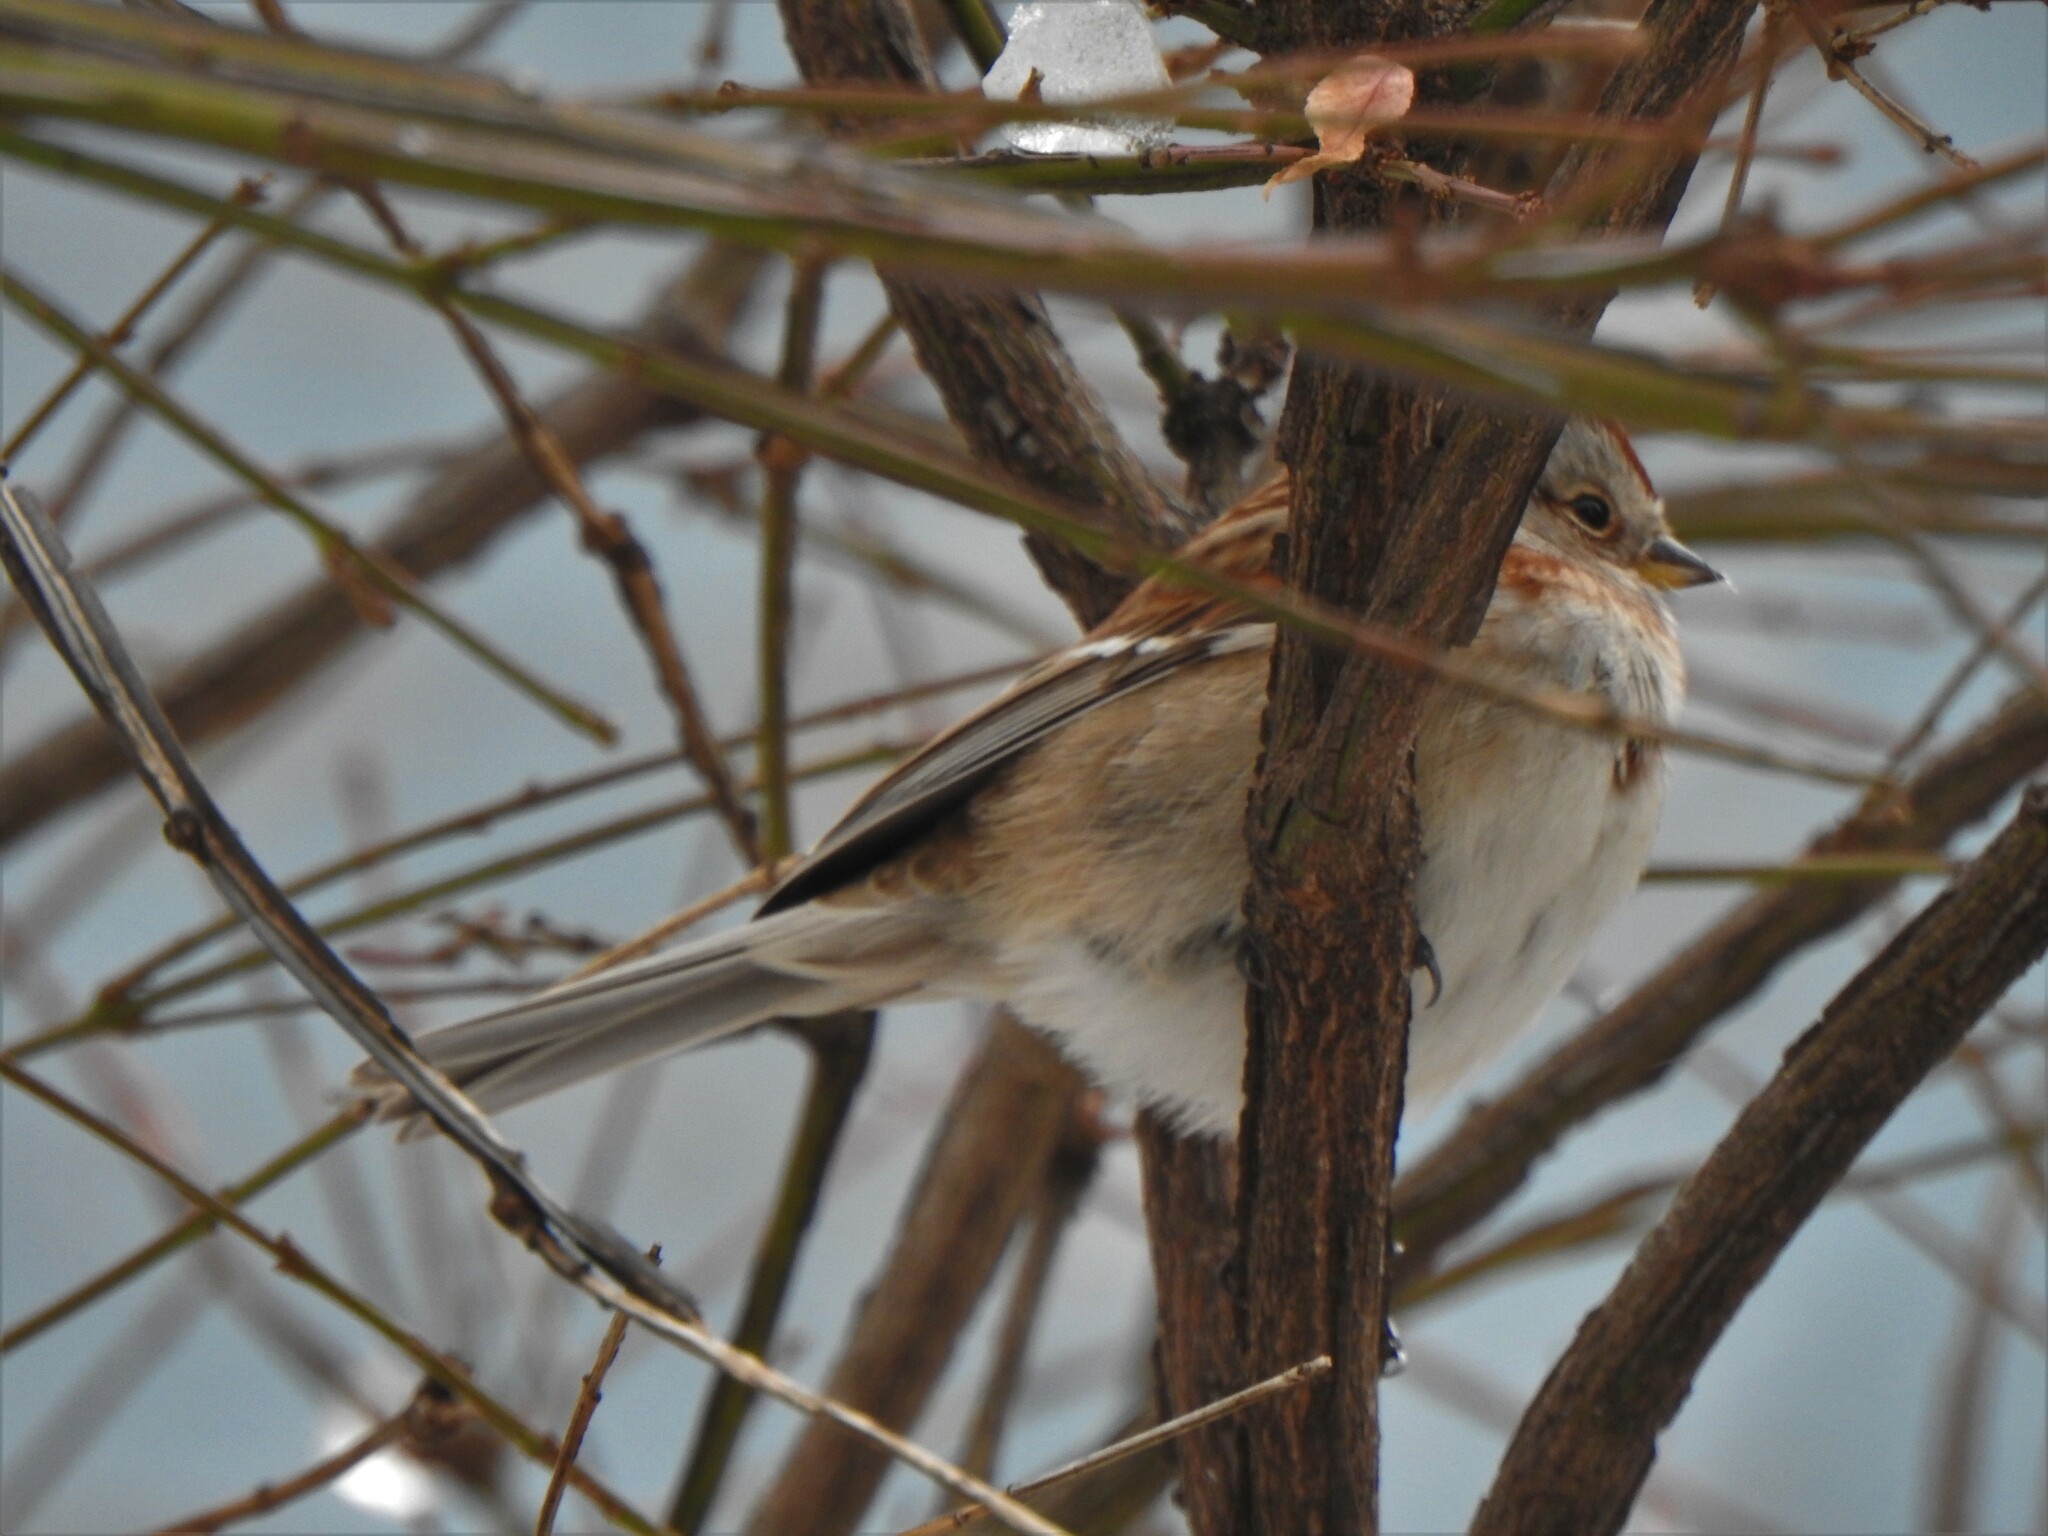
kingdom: Animalia
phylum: Chordata
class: Aves
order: Passeriformes
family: Passerellidae
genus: Spizelloides
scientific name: Spizelloides arborea
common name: American tree sparrow
